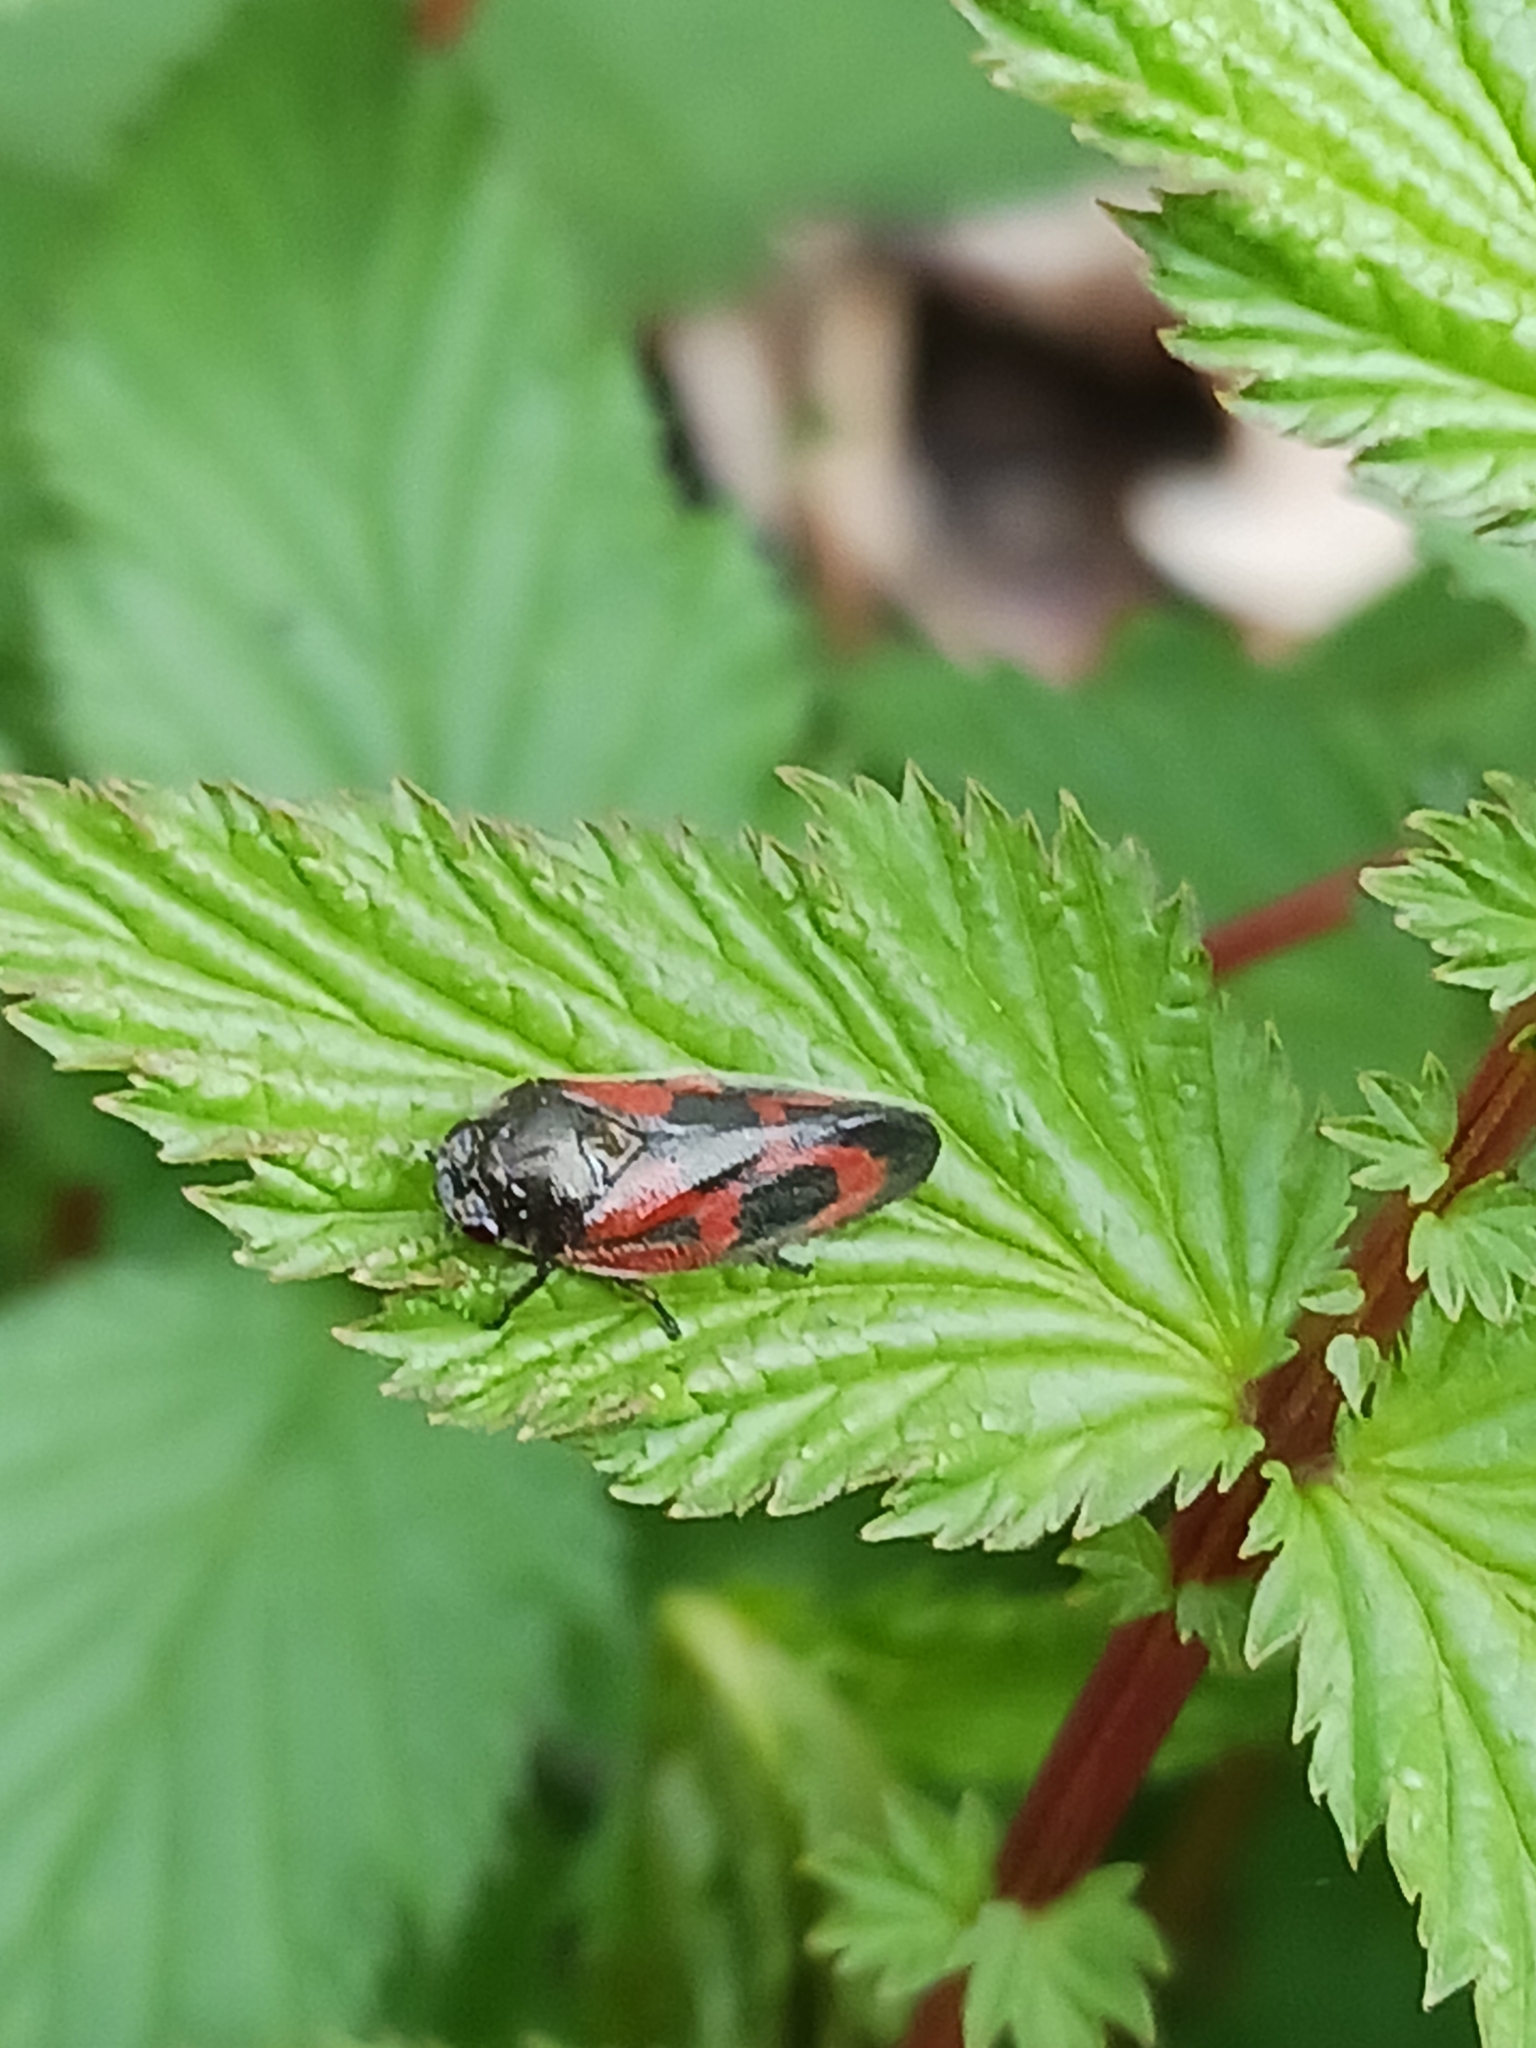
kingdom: Animalia
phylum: Arthropoda
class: Insecta
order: Hemiptera
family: Cercopidae
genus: Haematoloma
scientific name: Haematoloma dorsata
